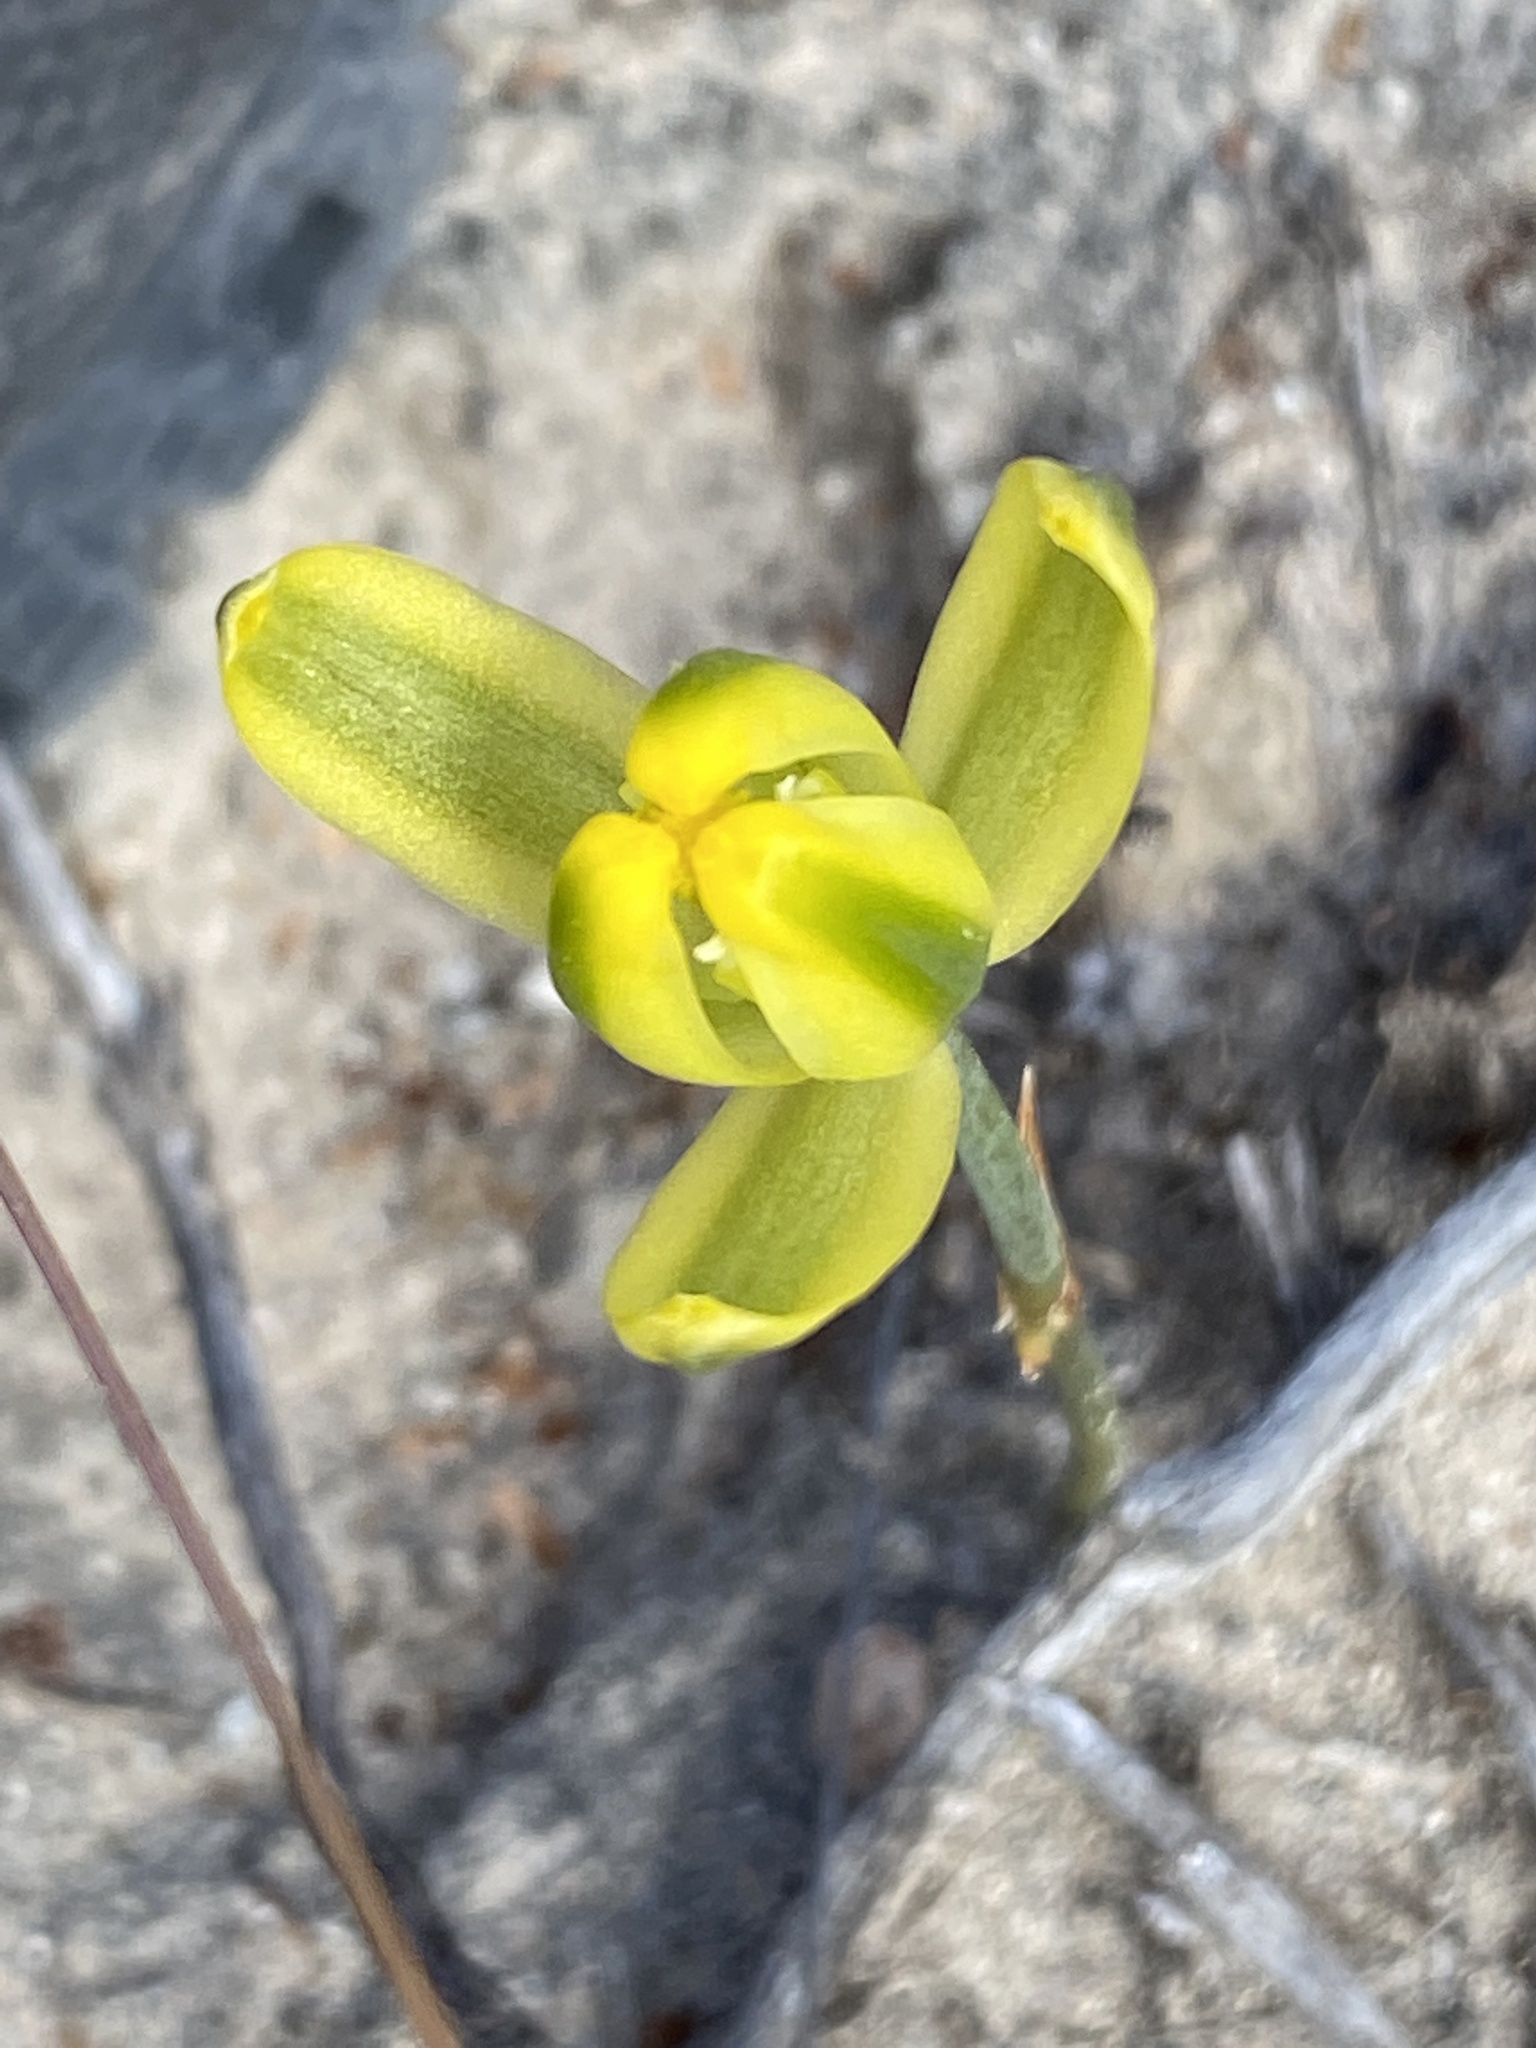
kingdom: Plantae
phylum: Tracheophyta
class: Liliopsida
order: Asparagales
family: Asparagaceae
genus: Albuca
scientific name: Albuca aurea
